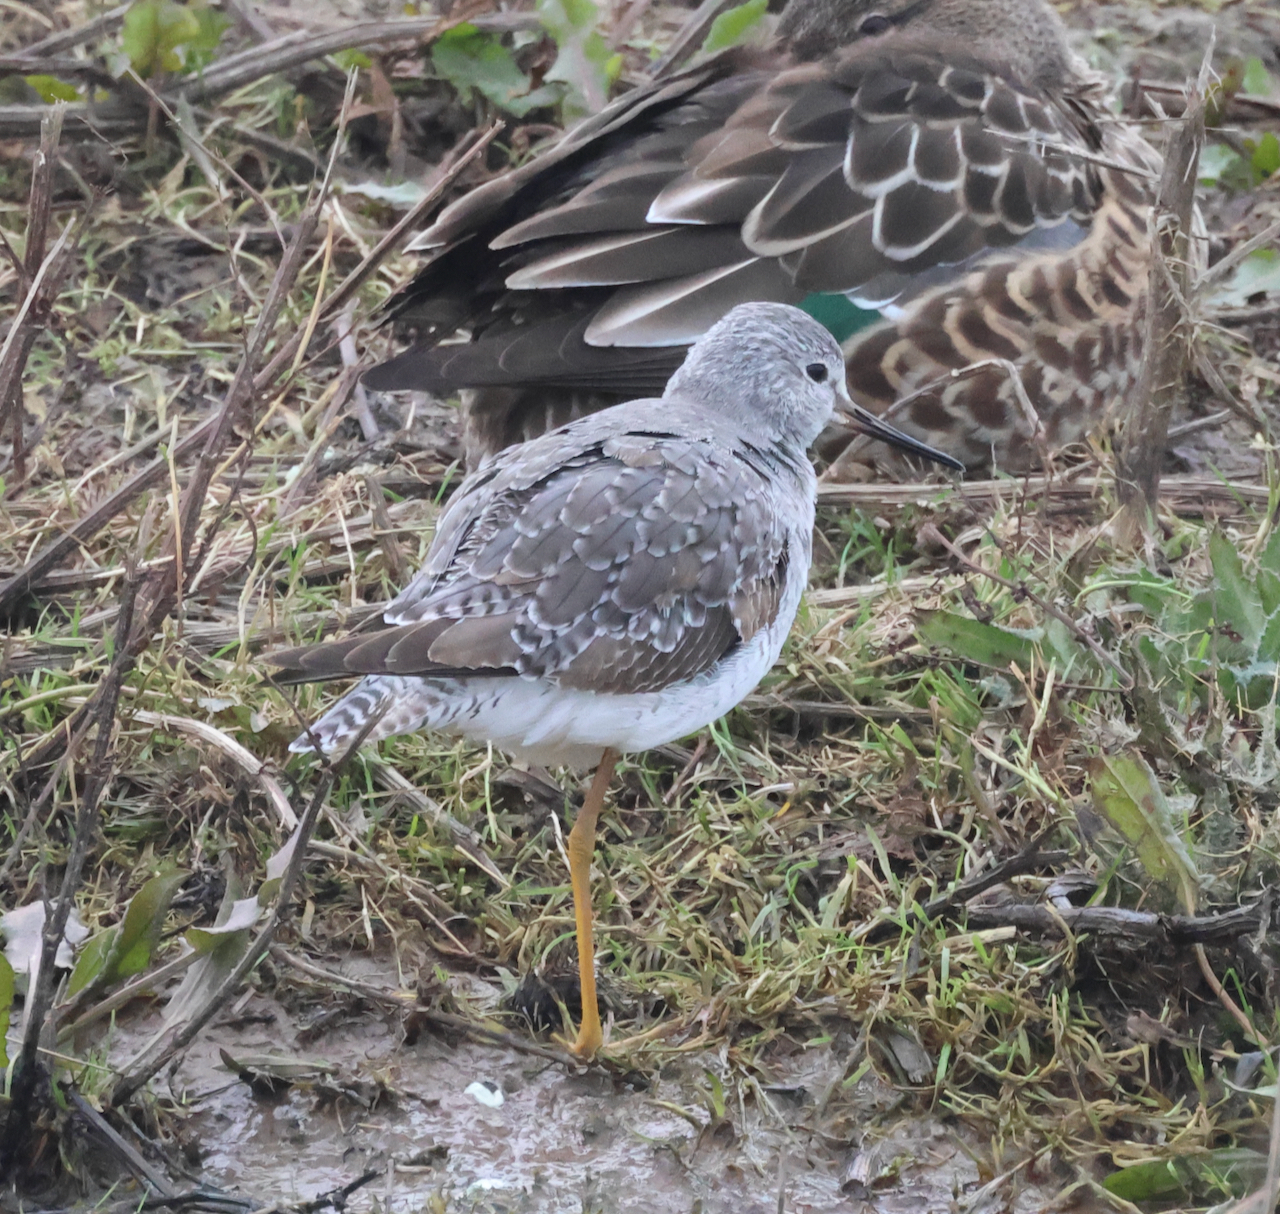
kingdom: Animalia
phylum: Chordata
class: Aves
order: Charadriiformes
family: Scolopacidae
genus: Tringa
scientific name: Tringa flavipes
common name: Lesser yellowlegs
